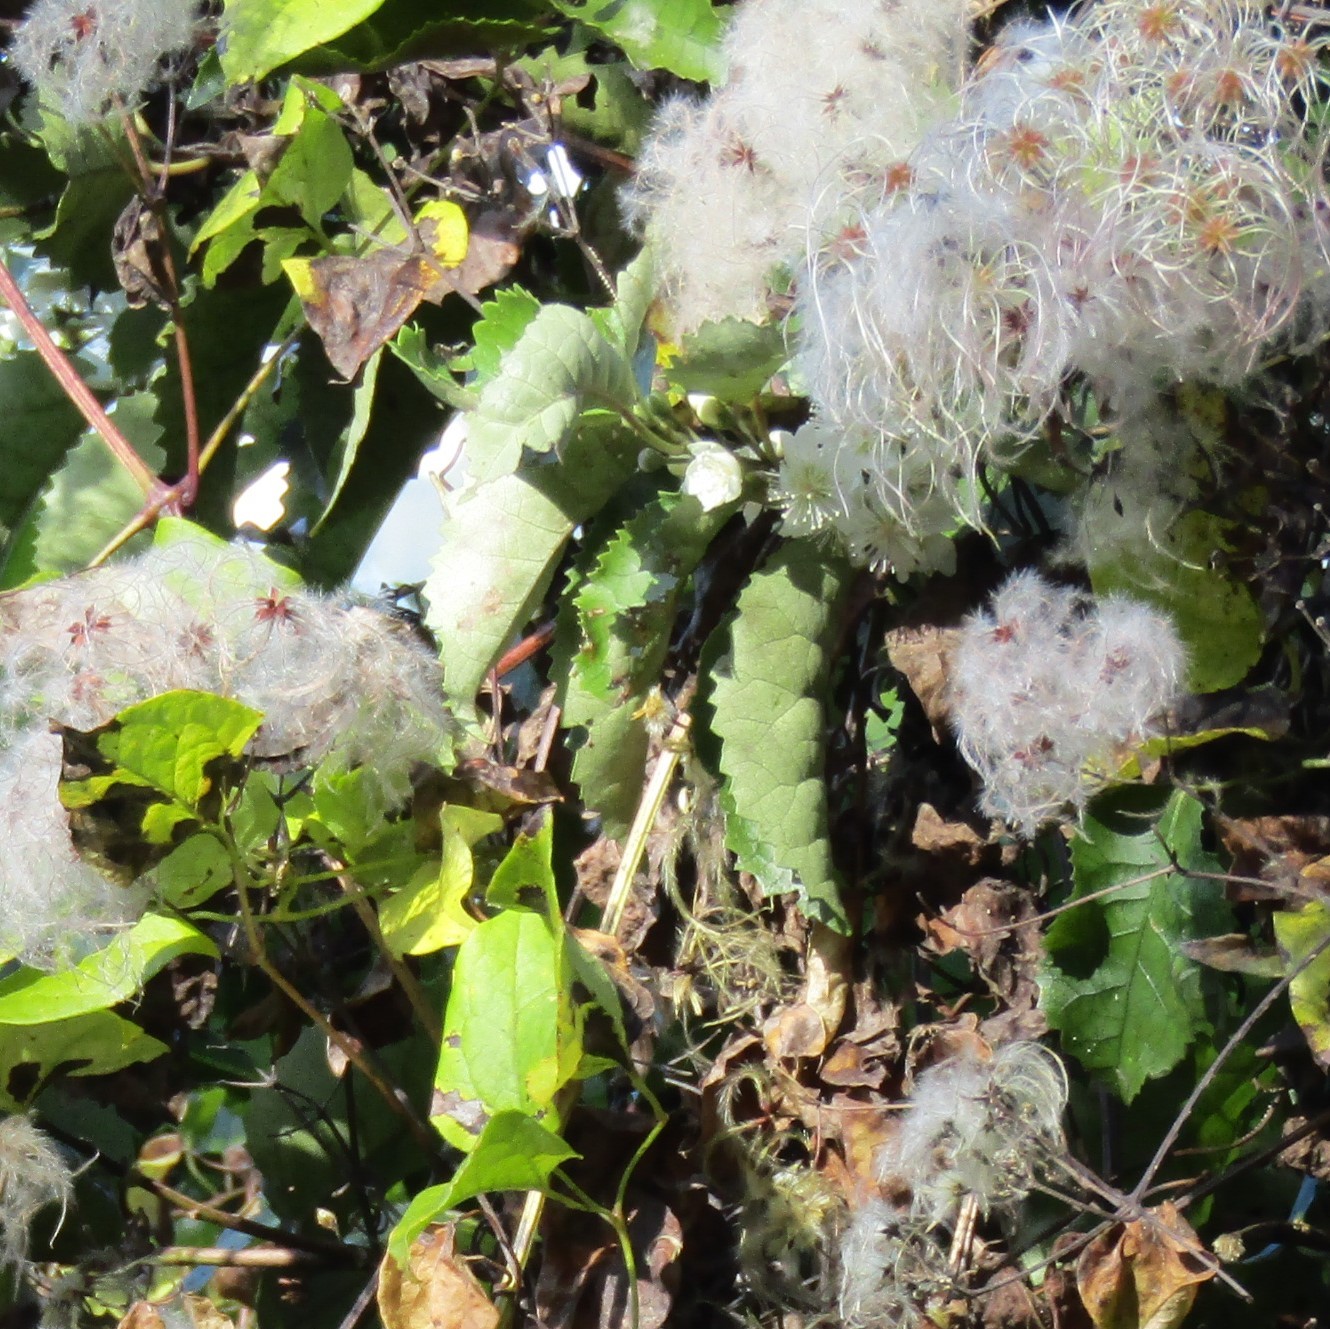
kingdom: Plantae
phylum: Tracheophyta
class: Magnoliopsida
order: Malvales
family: Malvaceae
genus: Hoheria
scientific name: Hoheria populnea
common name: Lacebark
